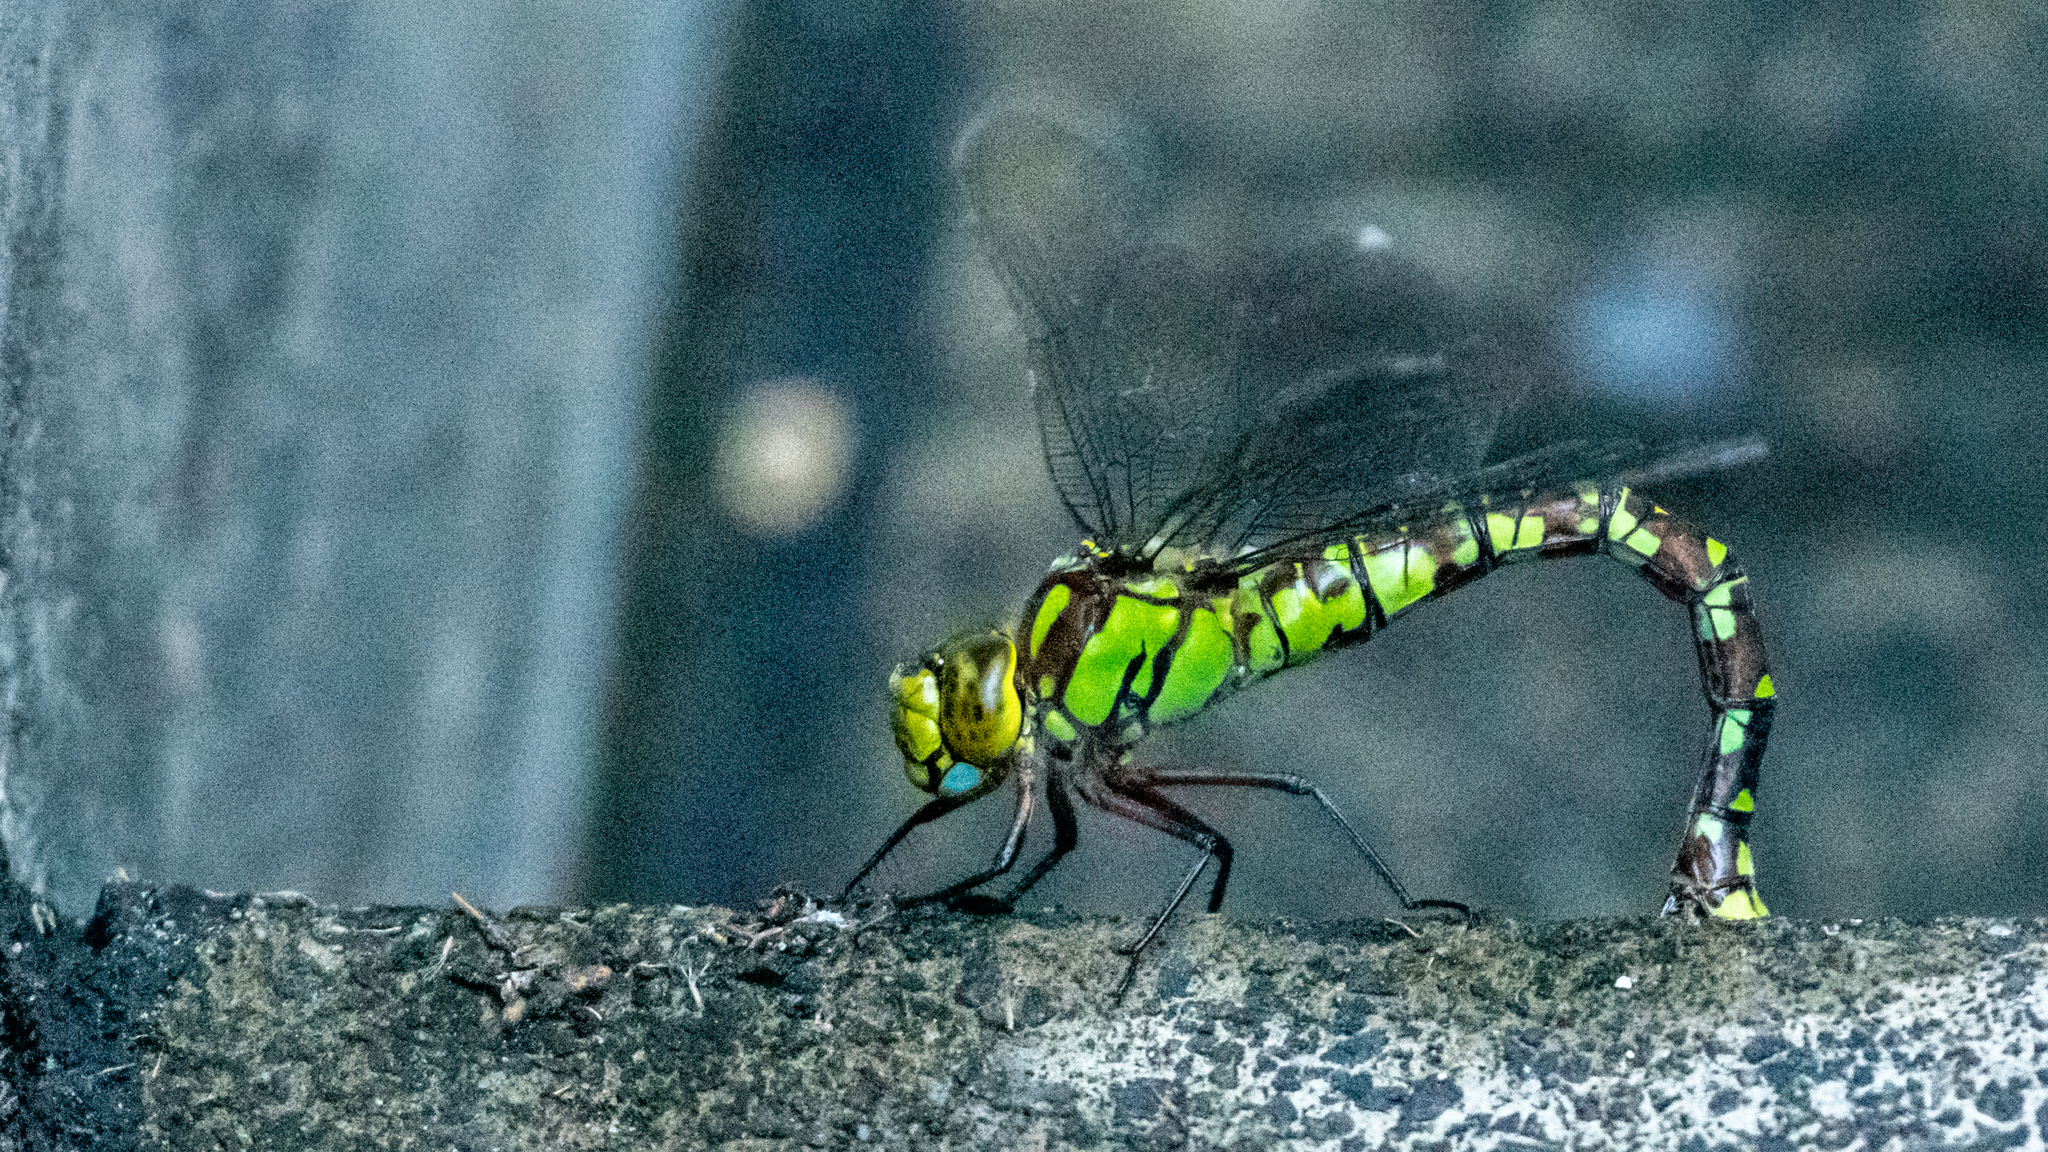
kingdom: Animalia
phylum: Arthropoda
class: Insecta
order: Odonata
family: Aeshnidae
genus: Aeshna
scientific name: Aeshna cyanea
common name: Southern hawker
